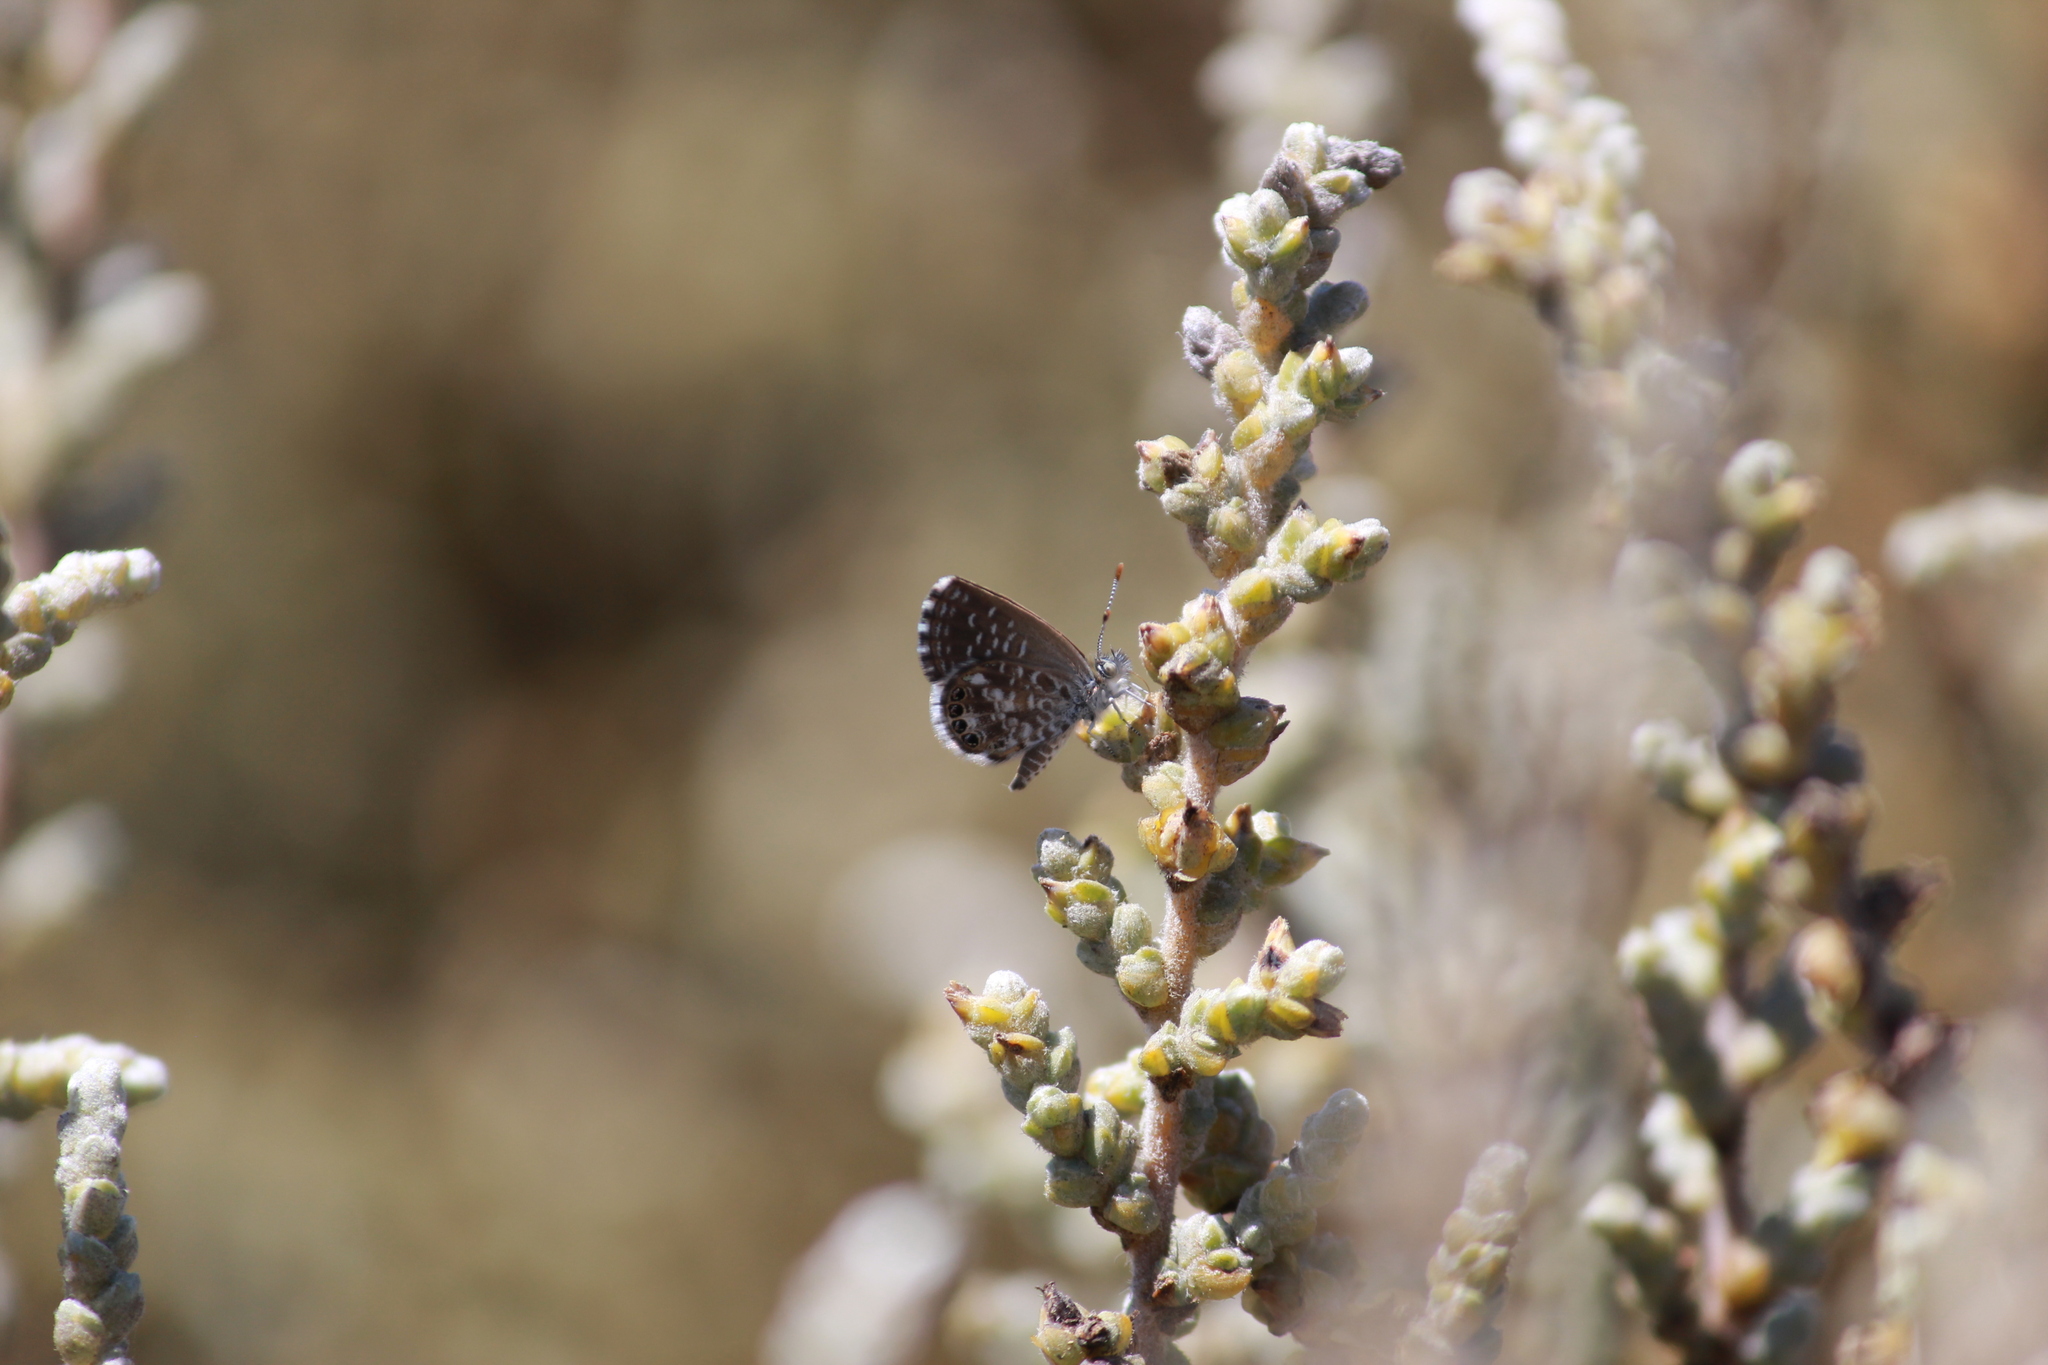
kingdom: Animalia
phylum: Arthropoda
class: Insecta
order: Lepidoptera
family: Lycaenidae
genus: Brephidium
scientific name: Brephidium metophis
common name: Tinktinkie blue
